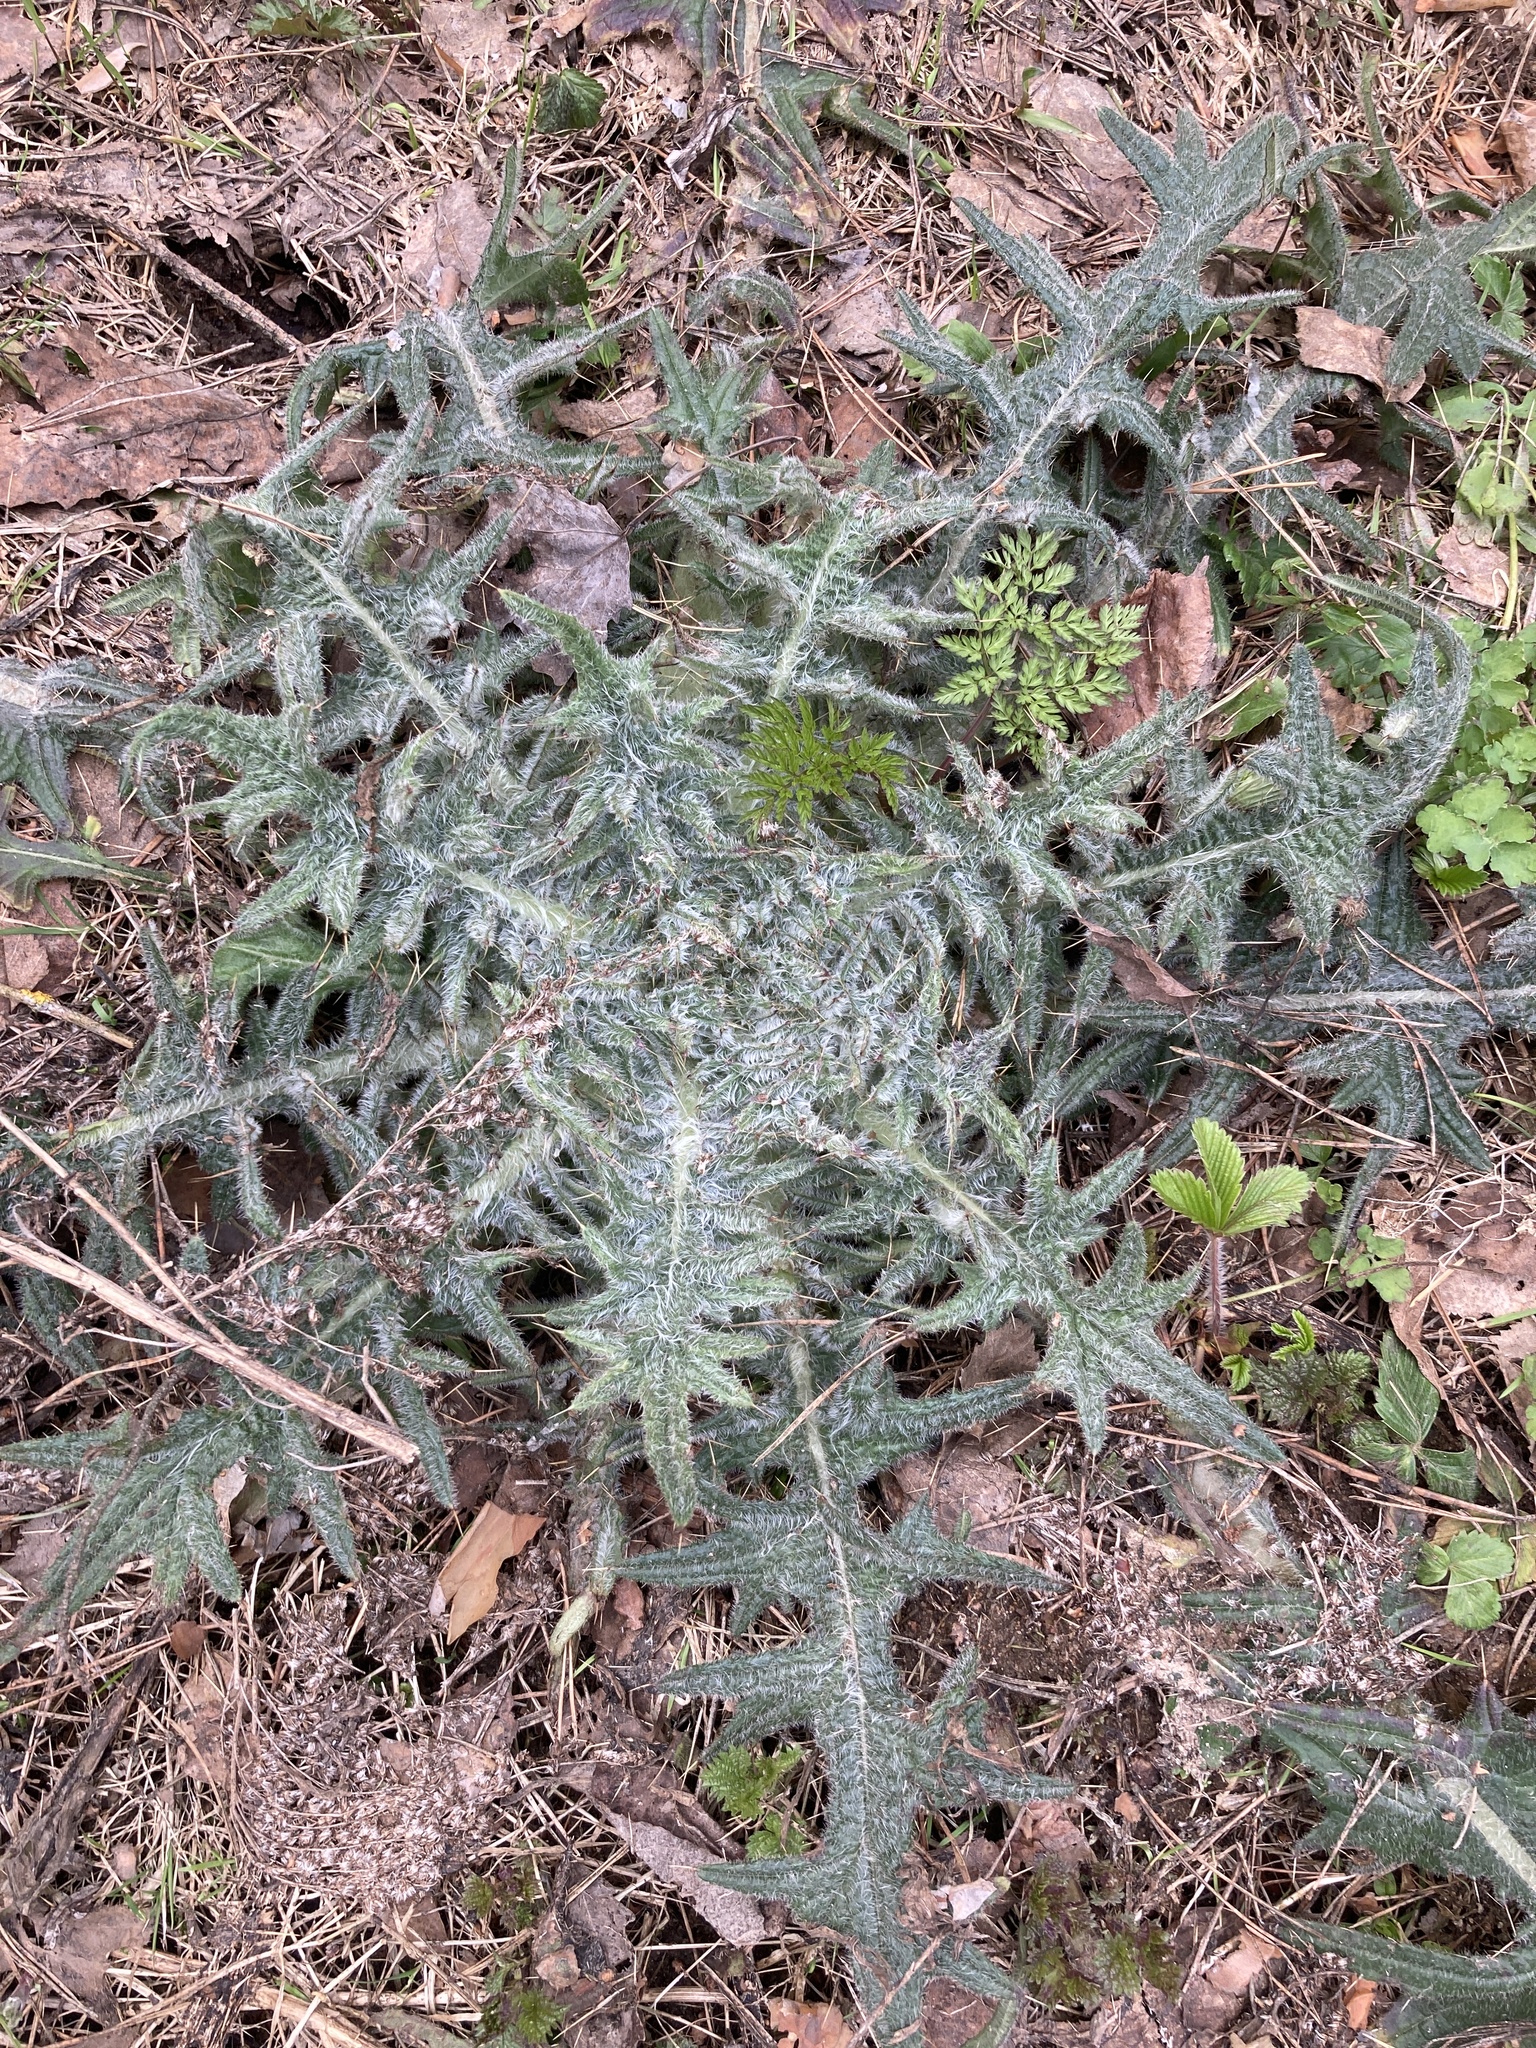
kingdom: Plantae
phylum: Tracheophyta
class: Magnoliopsida
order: Asterales
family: Asteraceae
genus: Cirsium
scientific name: Cirsium vulgare
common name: Bull thistle
